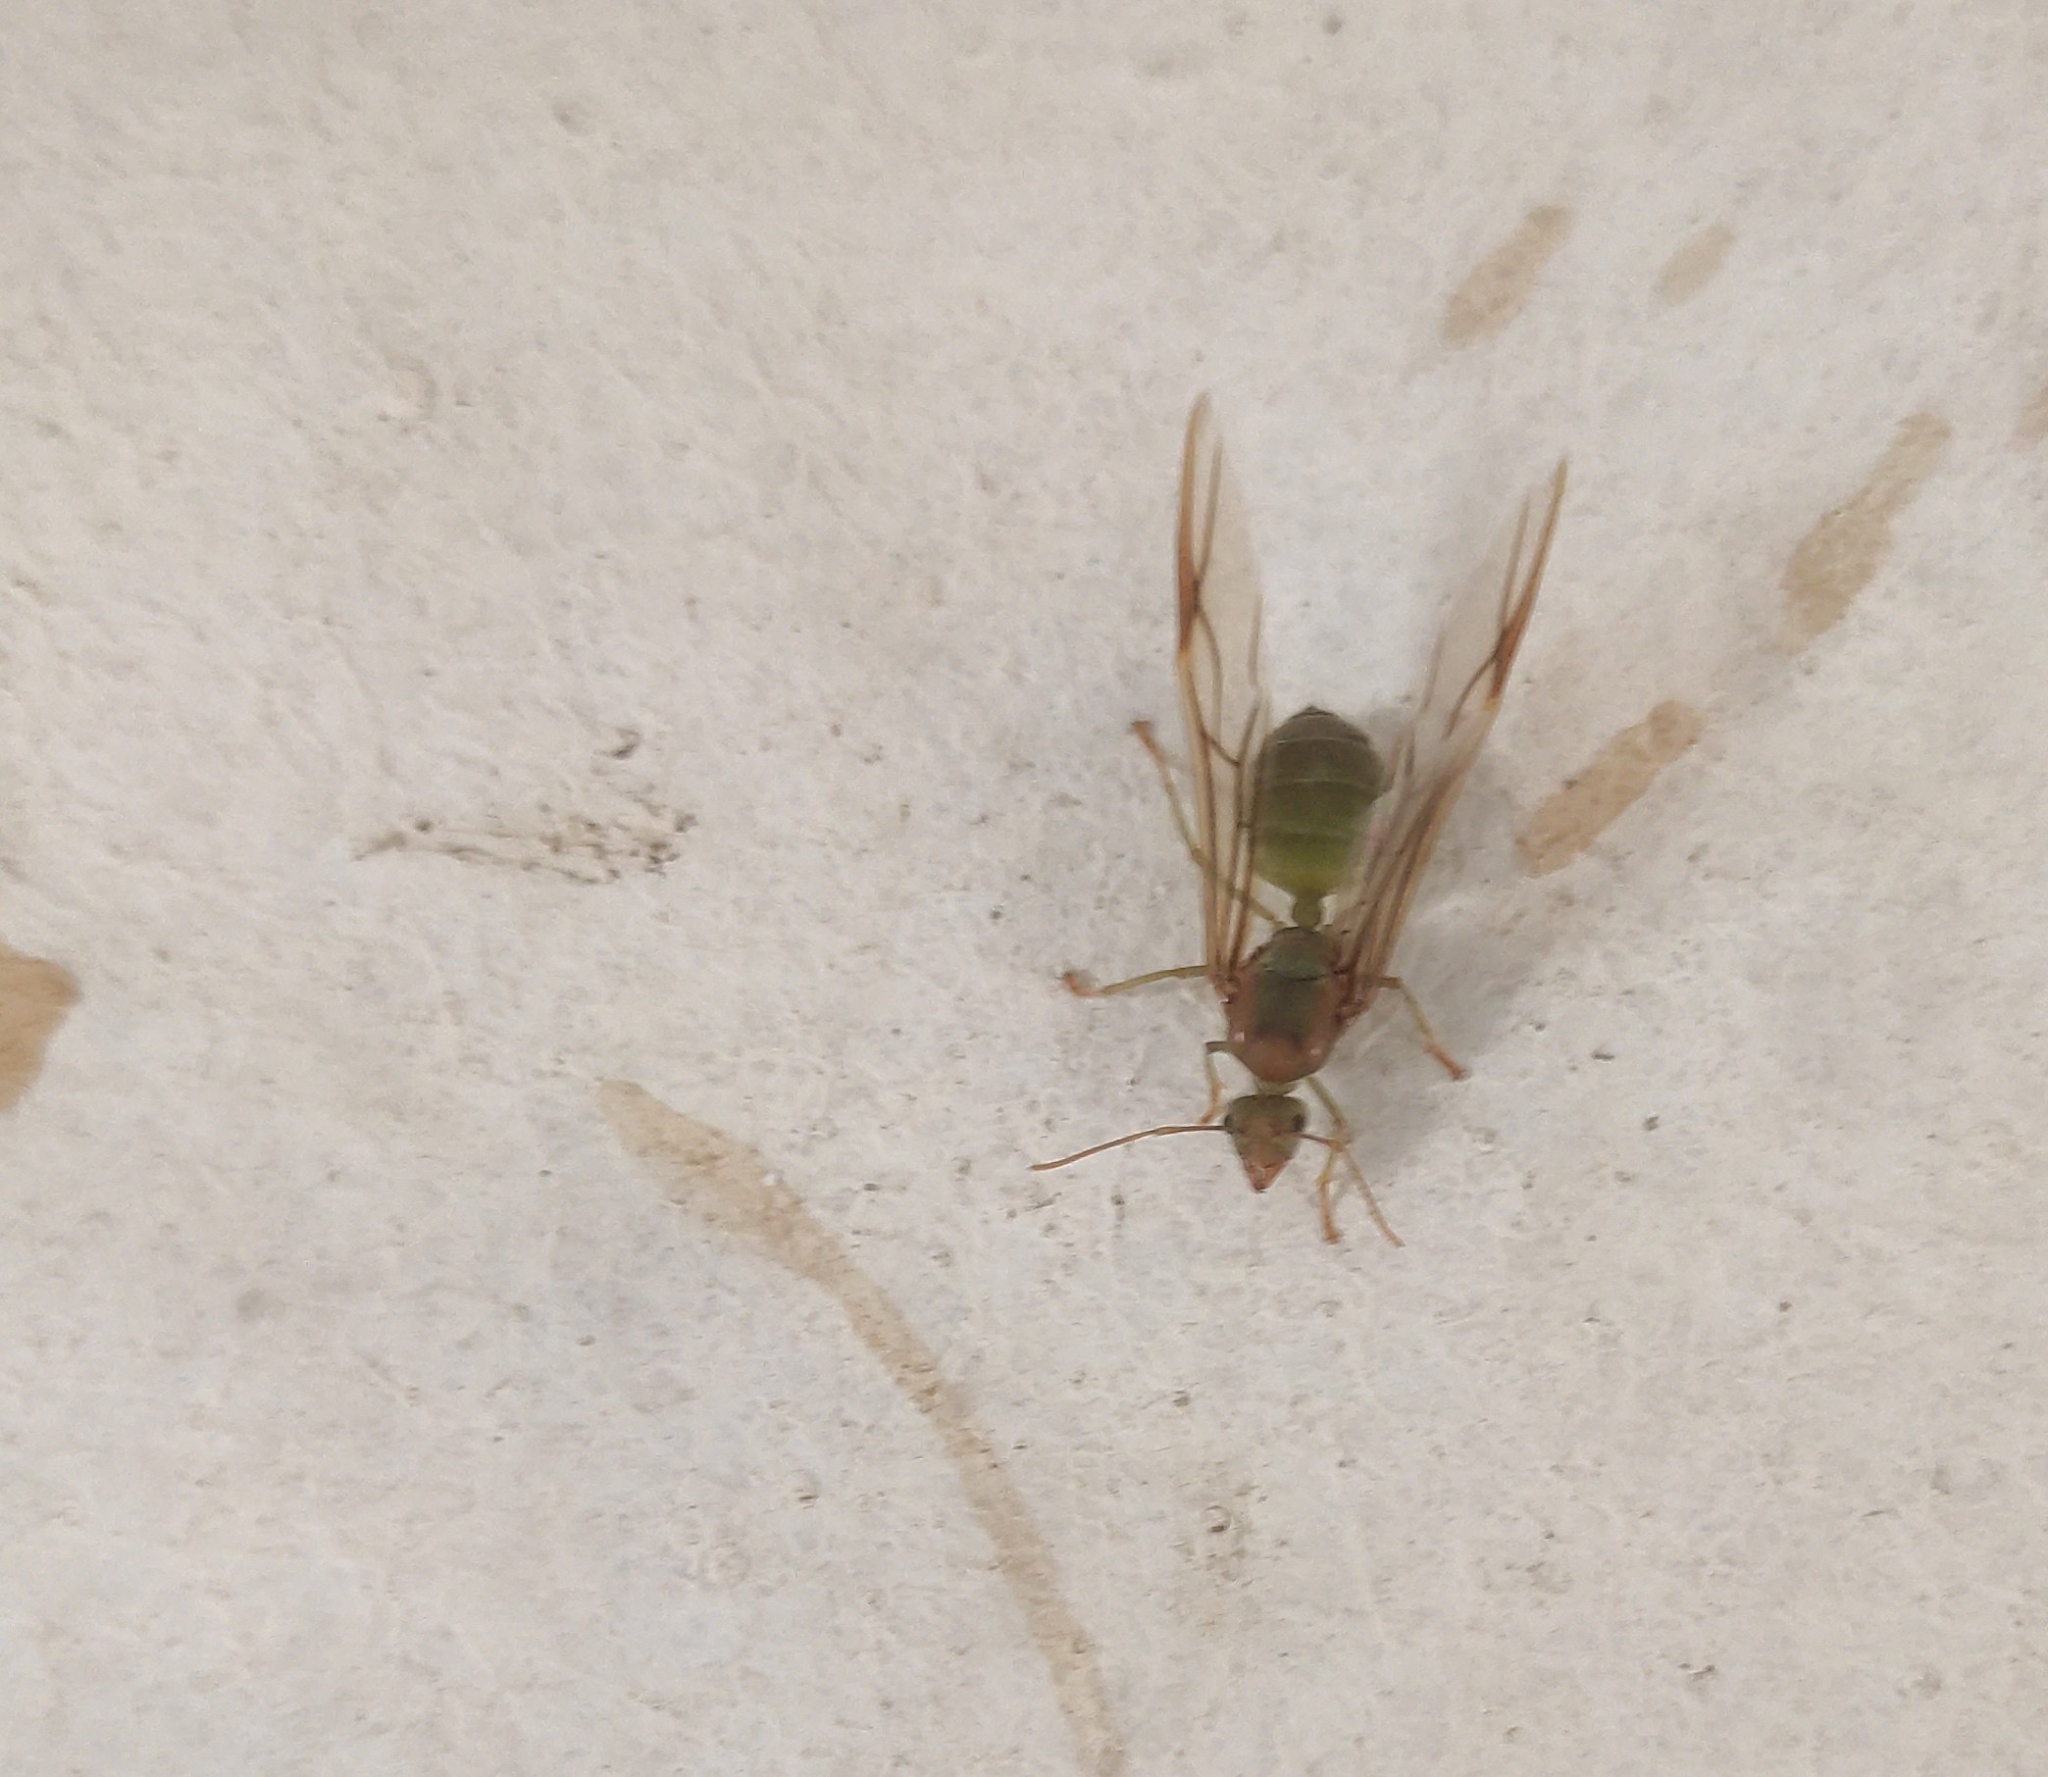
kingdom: Animalia
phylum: Arthropoda
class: Insecta
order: Hymenoptera
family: Formicidae
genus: Oecophylla
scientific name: Oecophylla smaragdina
